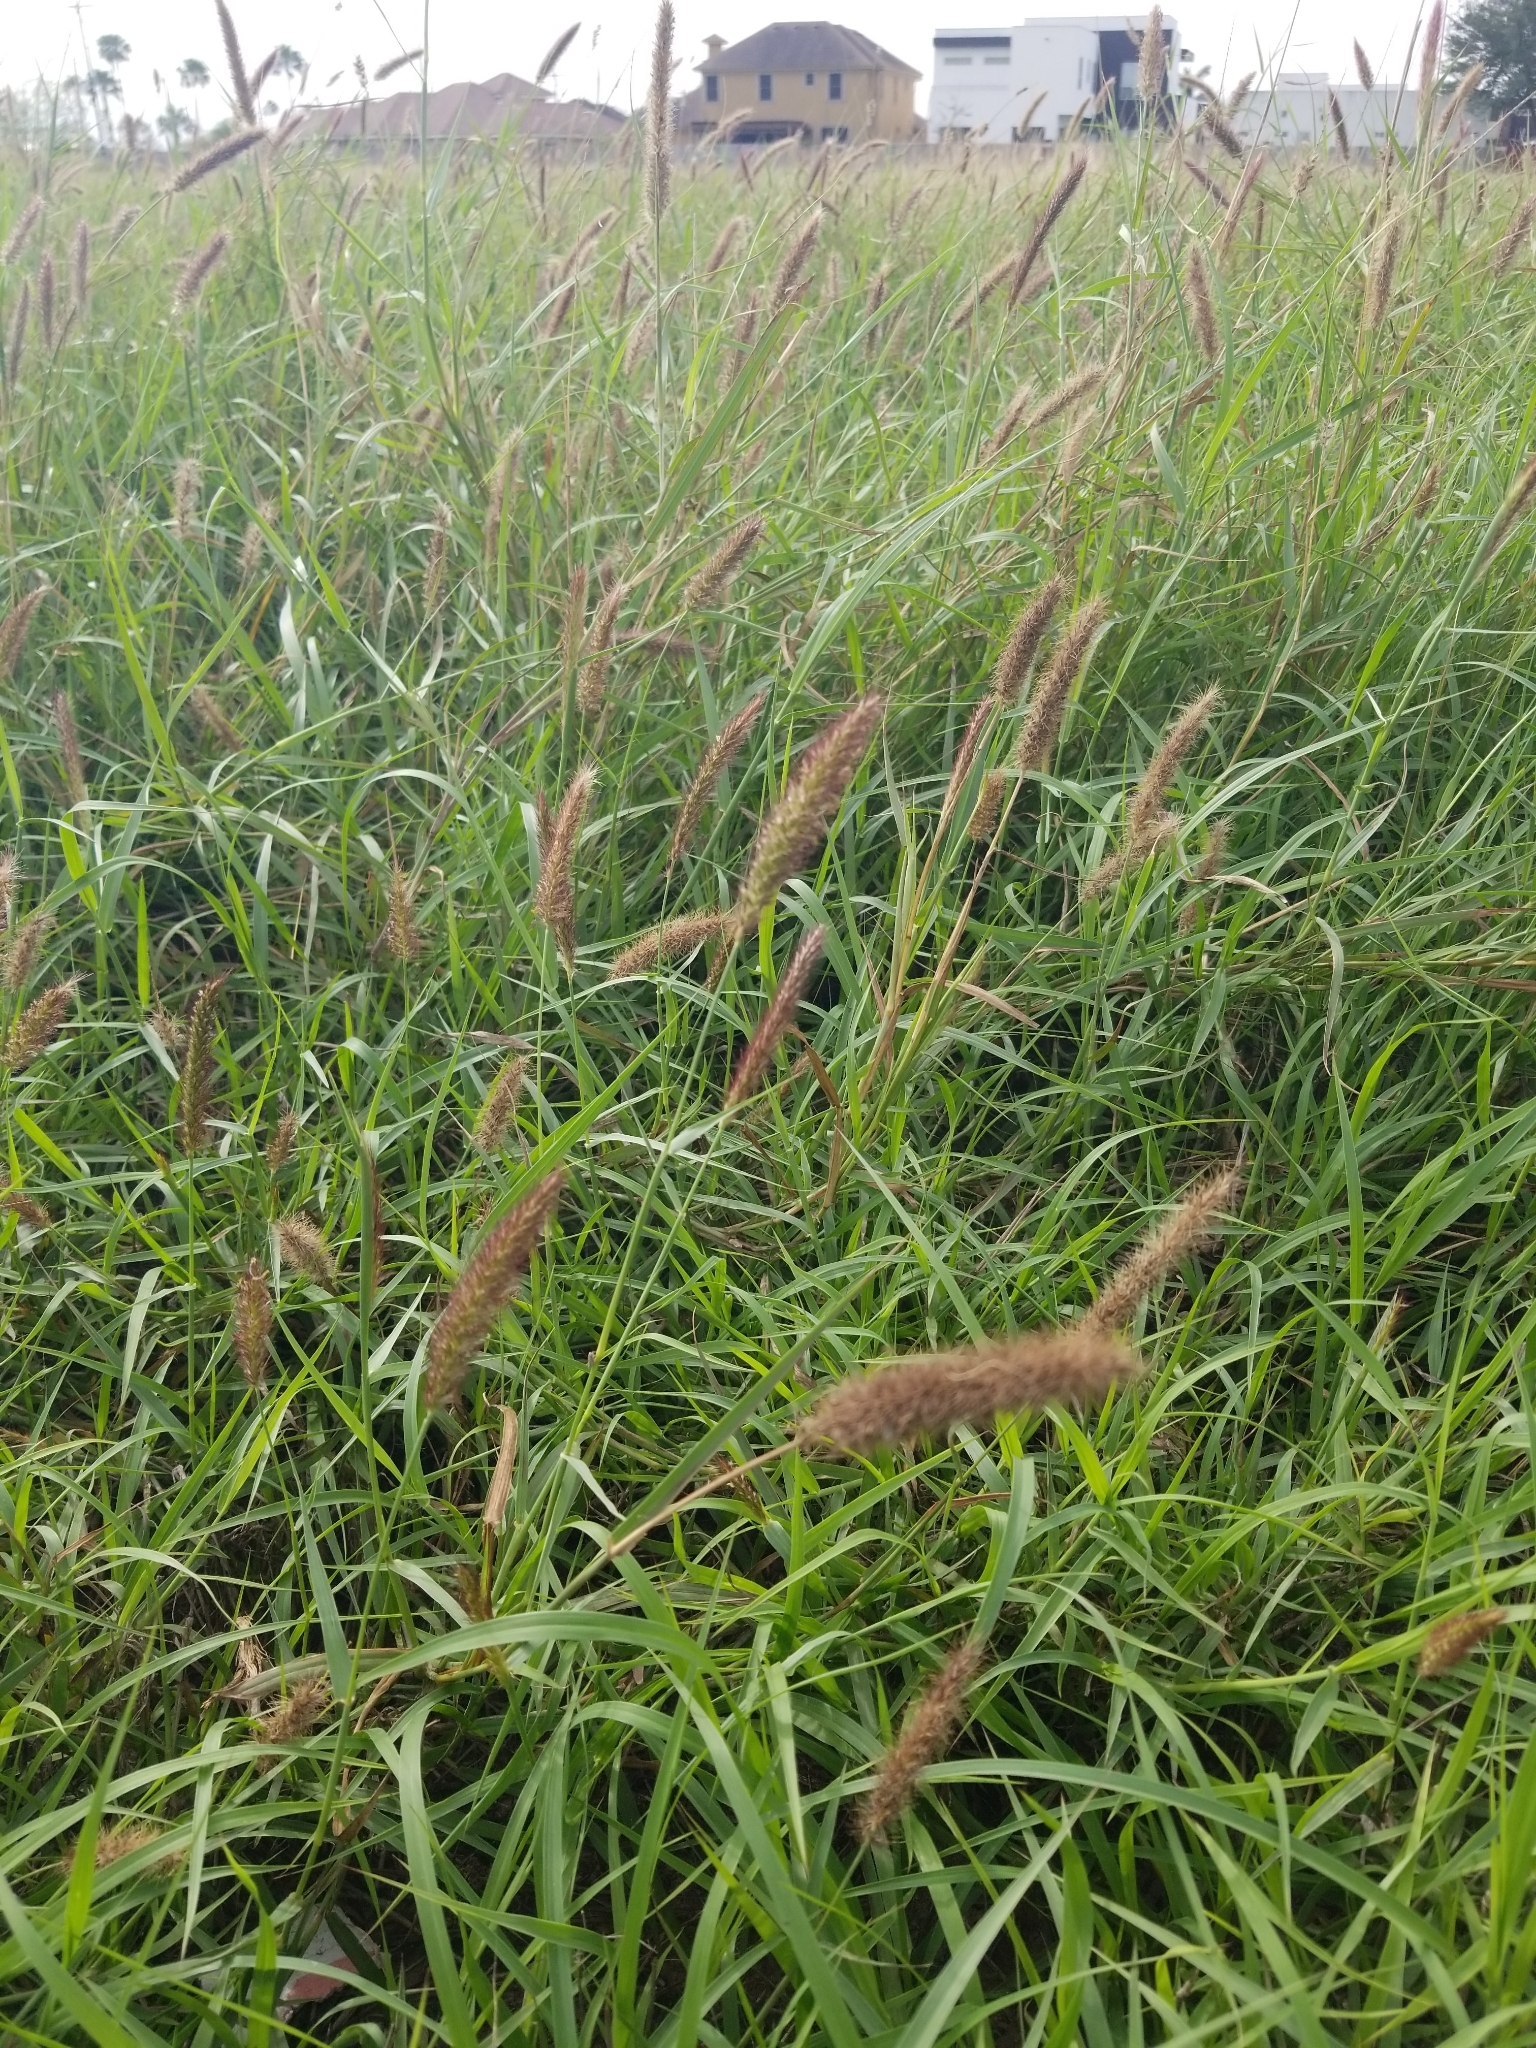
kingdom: Plantae
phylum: Tracheophyta
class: Liliopsida
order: Poales
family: Poaceae
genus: Cenchrus
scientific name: Cenchrus ciliaris
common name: Buffelgrass
